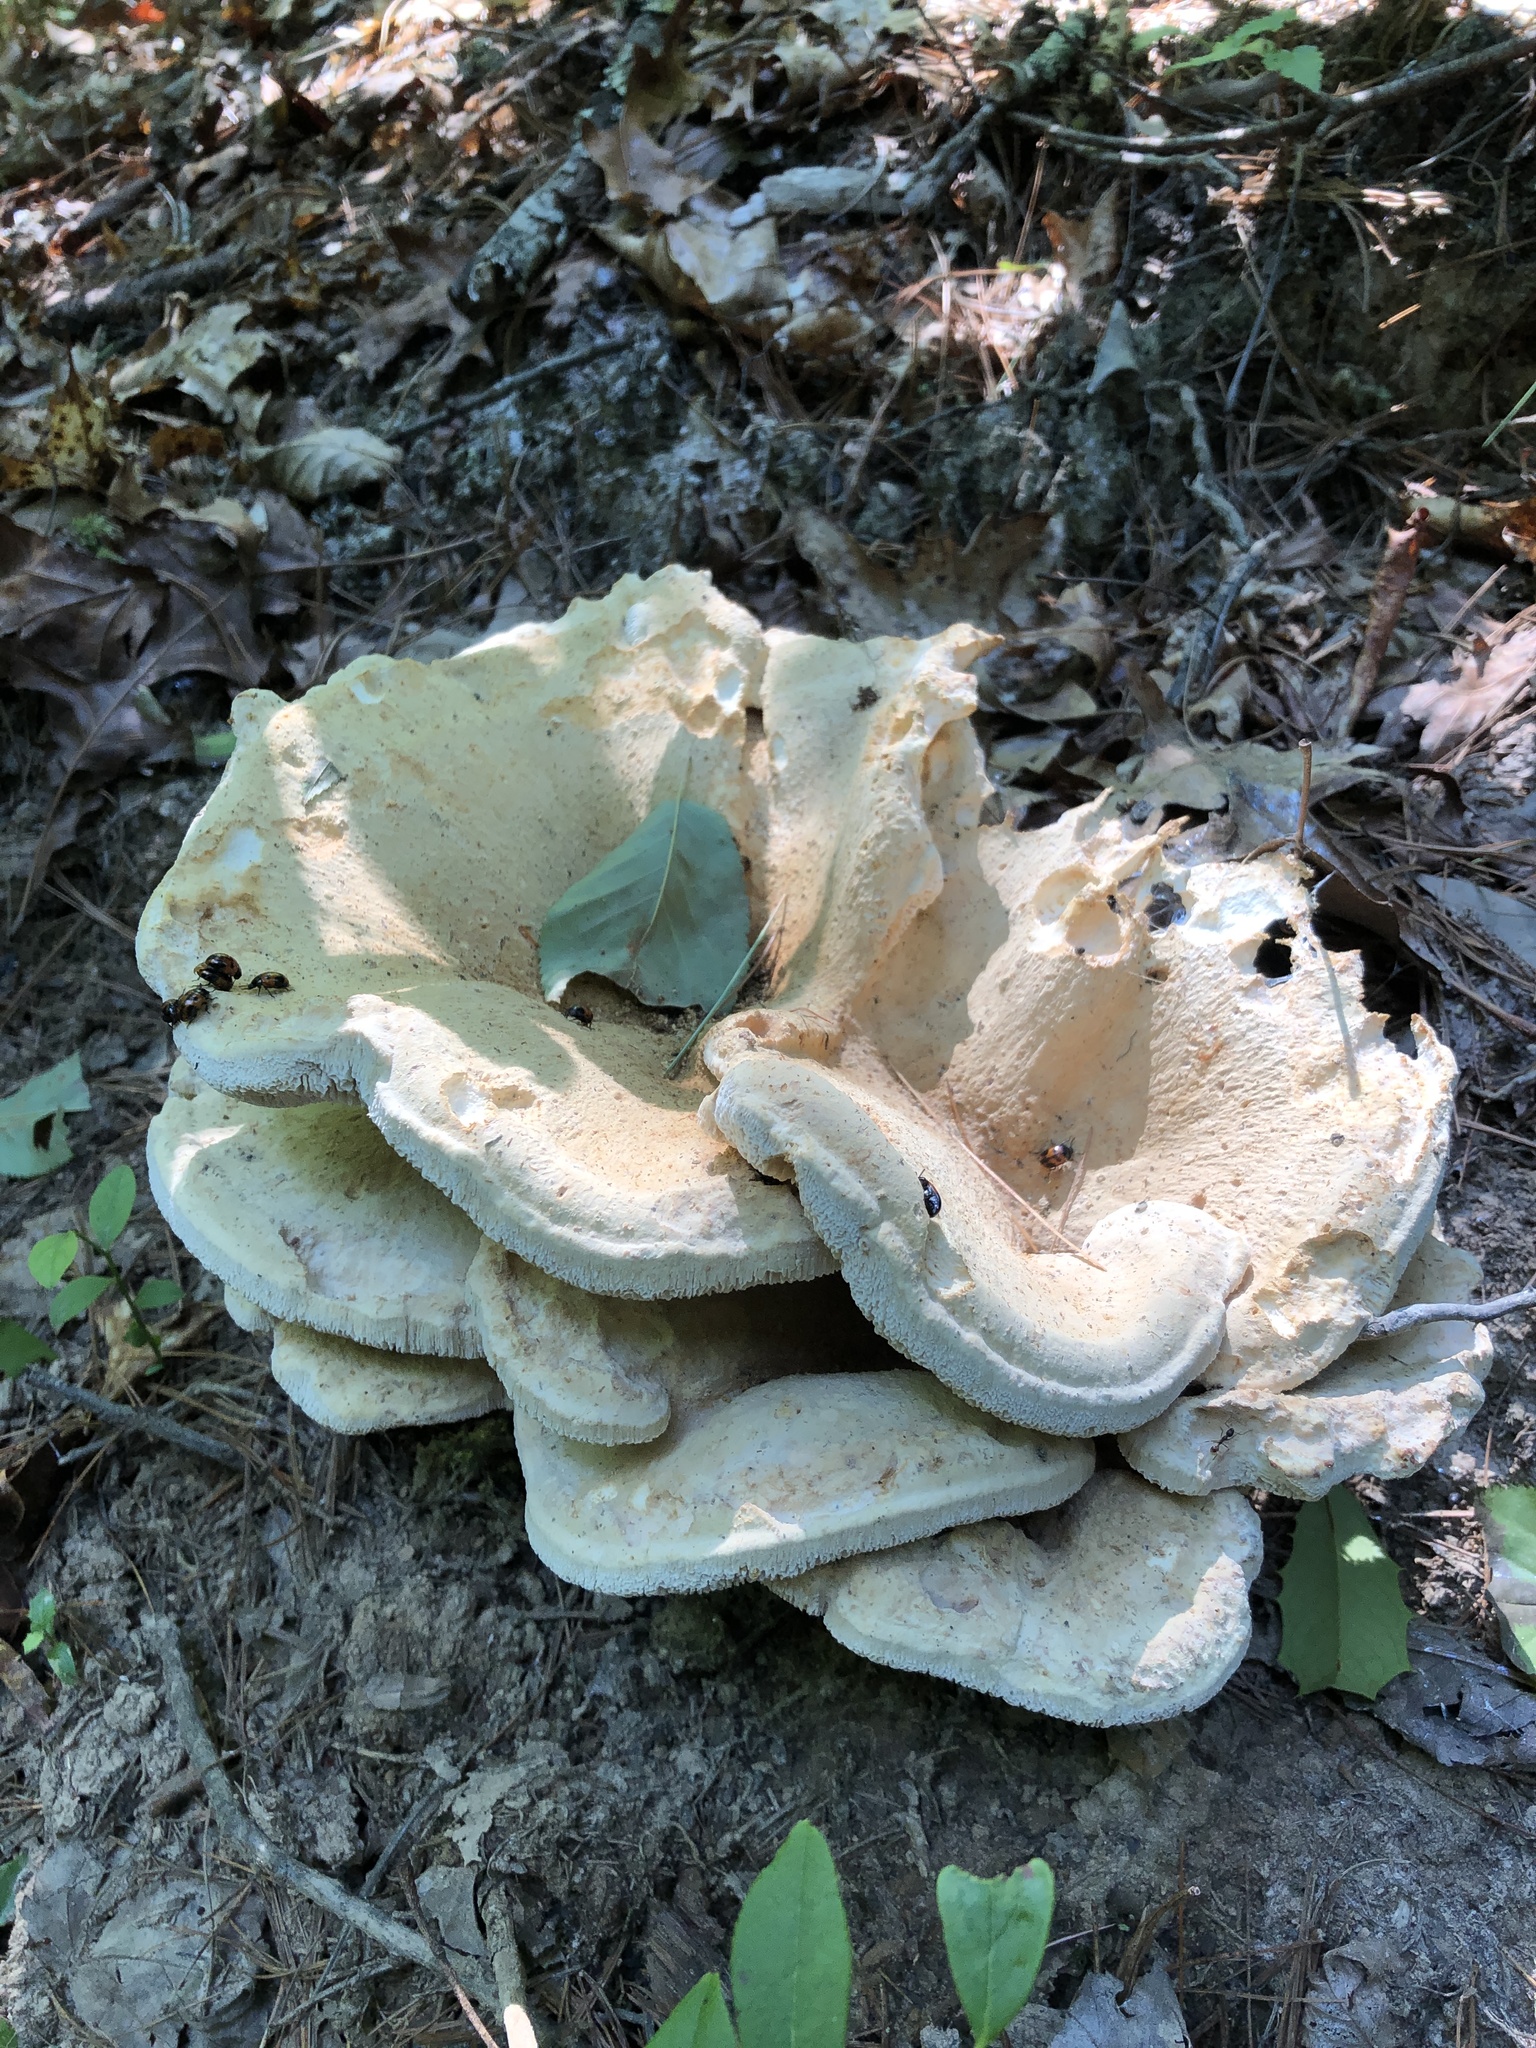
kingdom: Fungi
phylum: Basidiomycota
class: Agaricomycetes
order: Russulales
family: Bondarzewiaceae
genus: Bondarzewia
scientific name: Bondarzewia berkeleyi
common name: Berkeley's polypore
